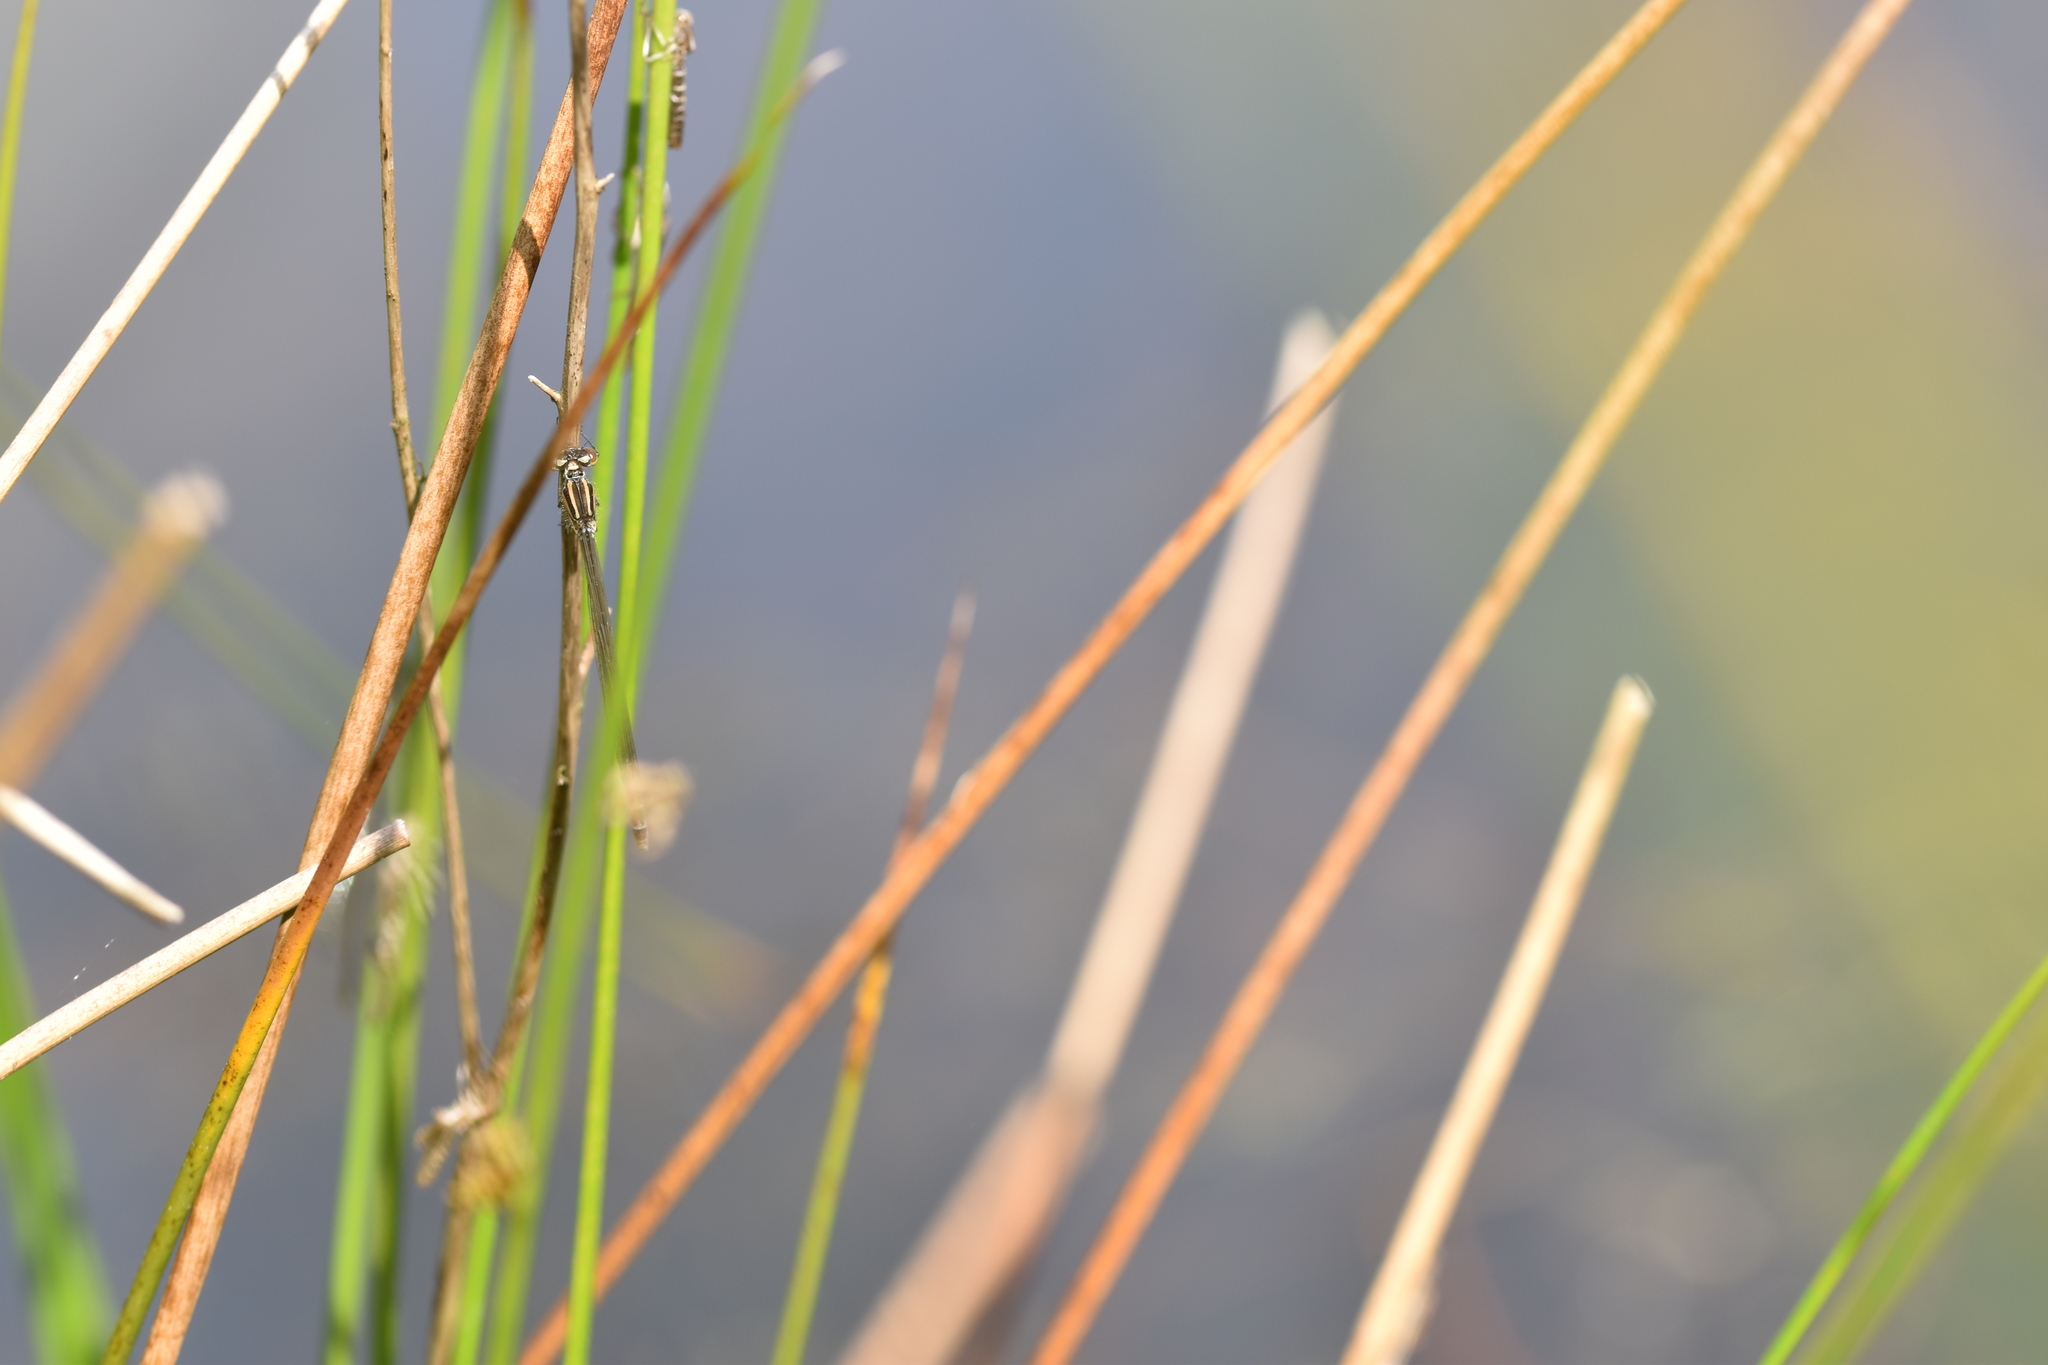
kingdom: Animalia
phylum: Arthropoda
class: Insecta
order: Odonata
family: Coenagrionidae
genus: Coenagrion
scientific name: Coenagrion puella
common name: Azure damselfly
